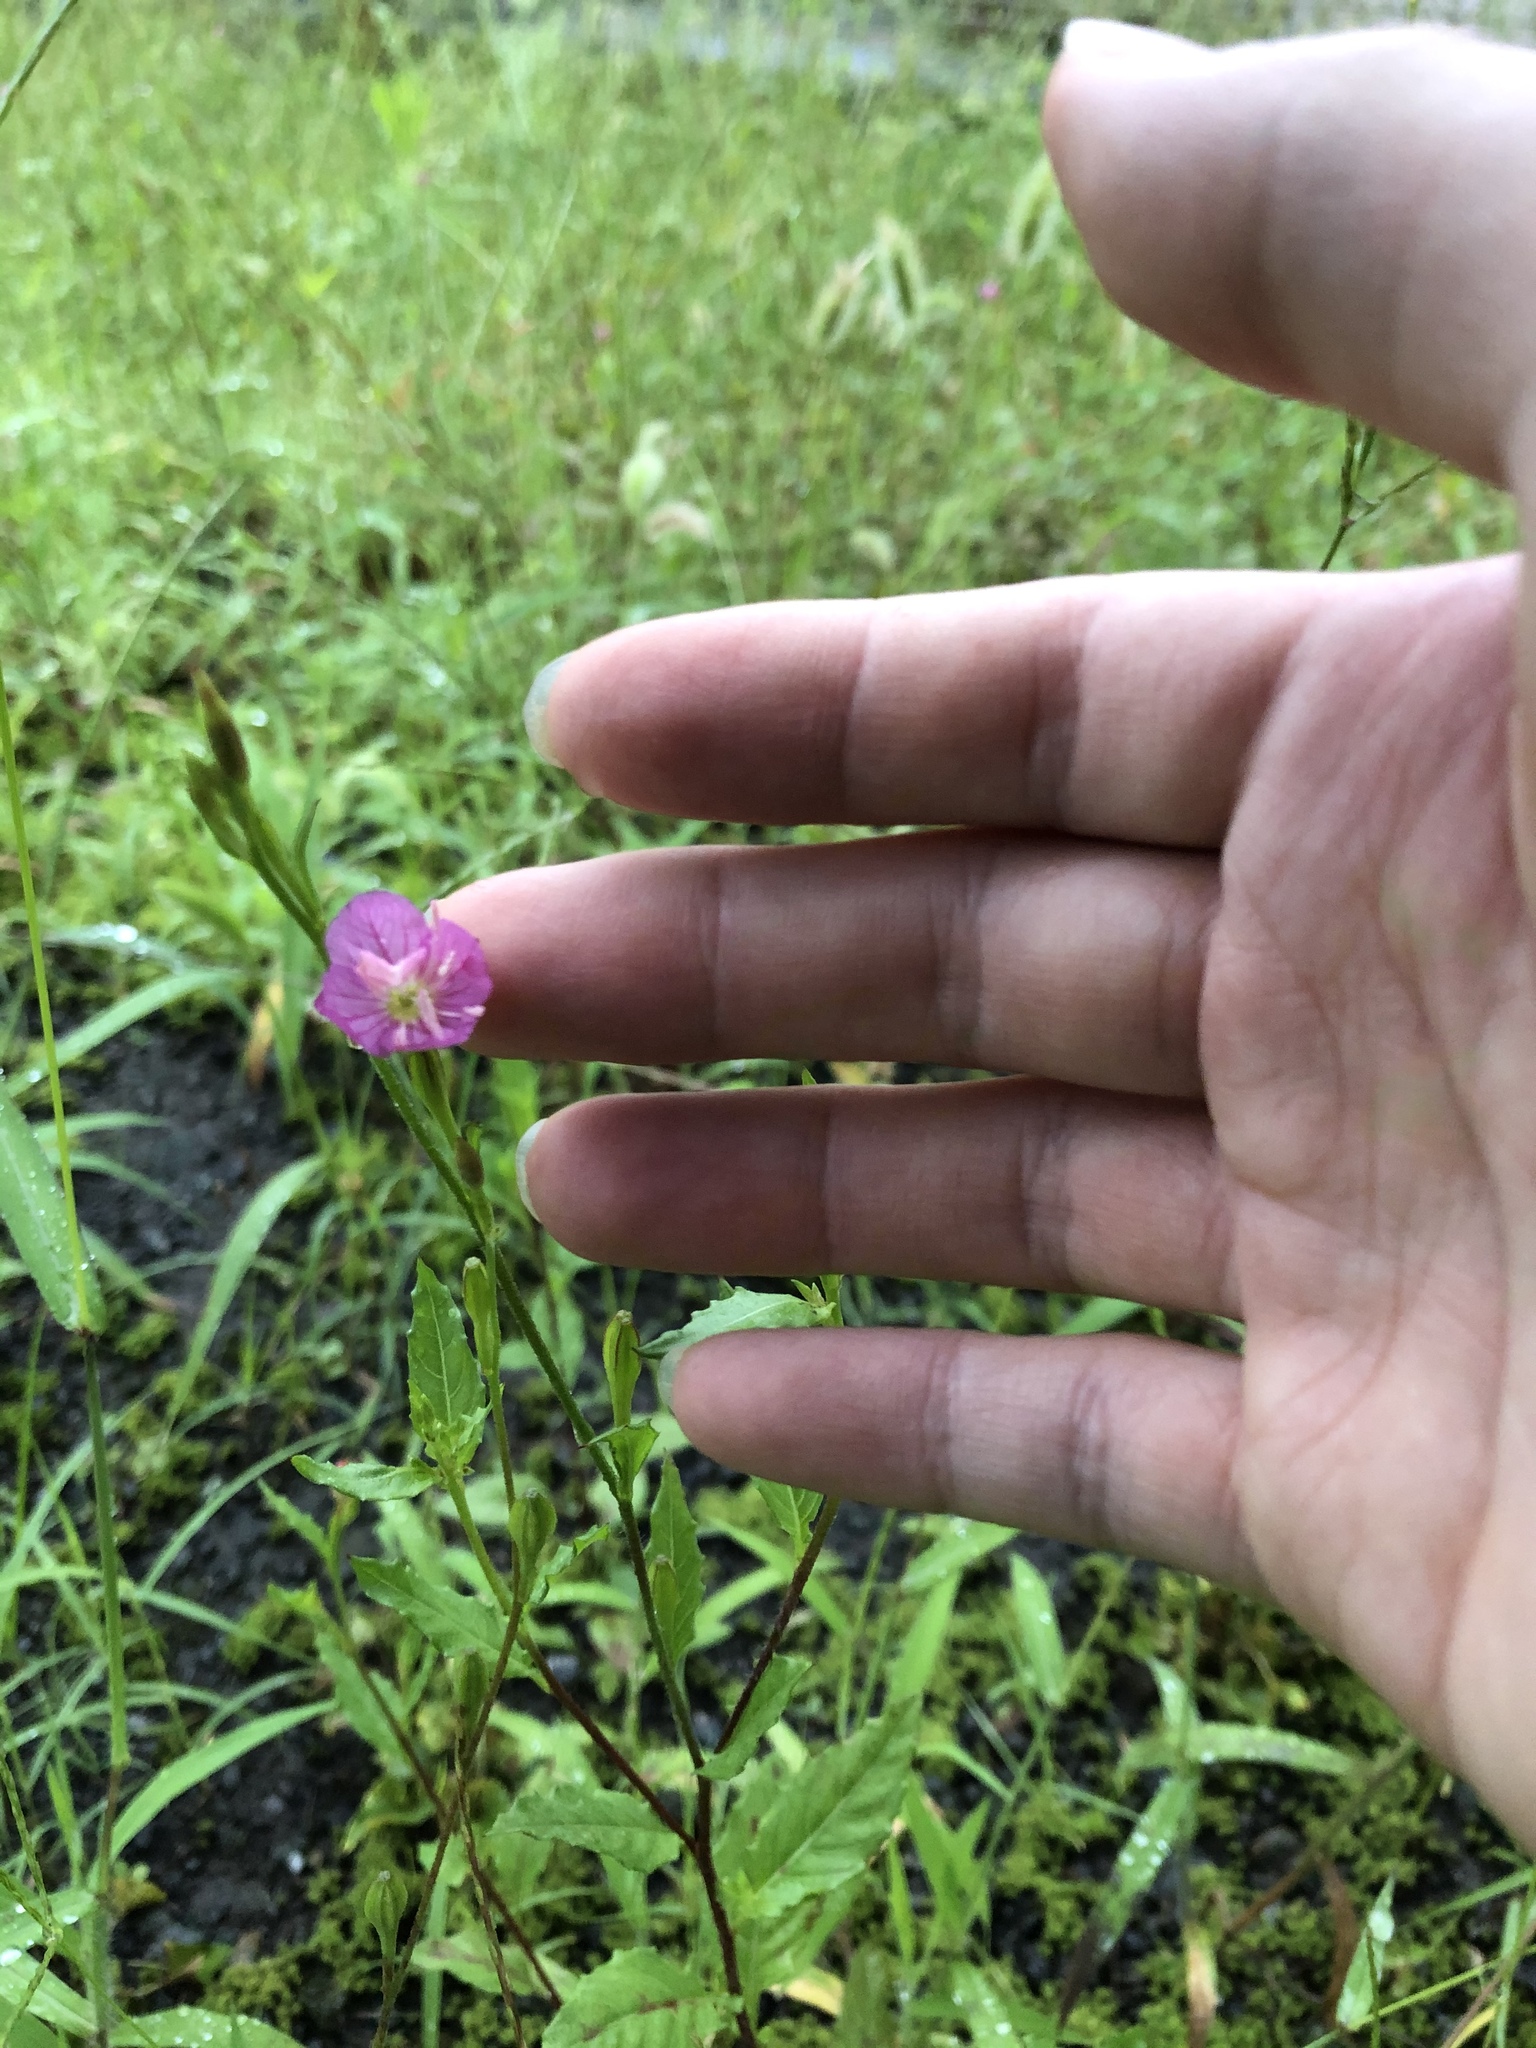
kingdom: Plantae
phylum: Tracheophyta
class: Magnoliopsida
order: Myrtales
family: Onagraceae
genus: Oenothera
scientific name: Oenothera rosea
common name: Rosy evening-primrose
